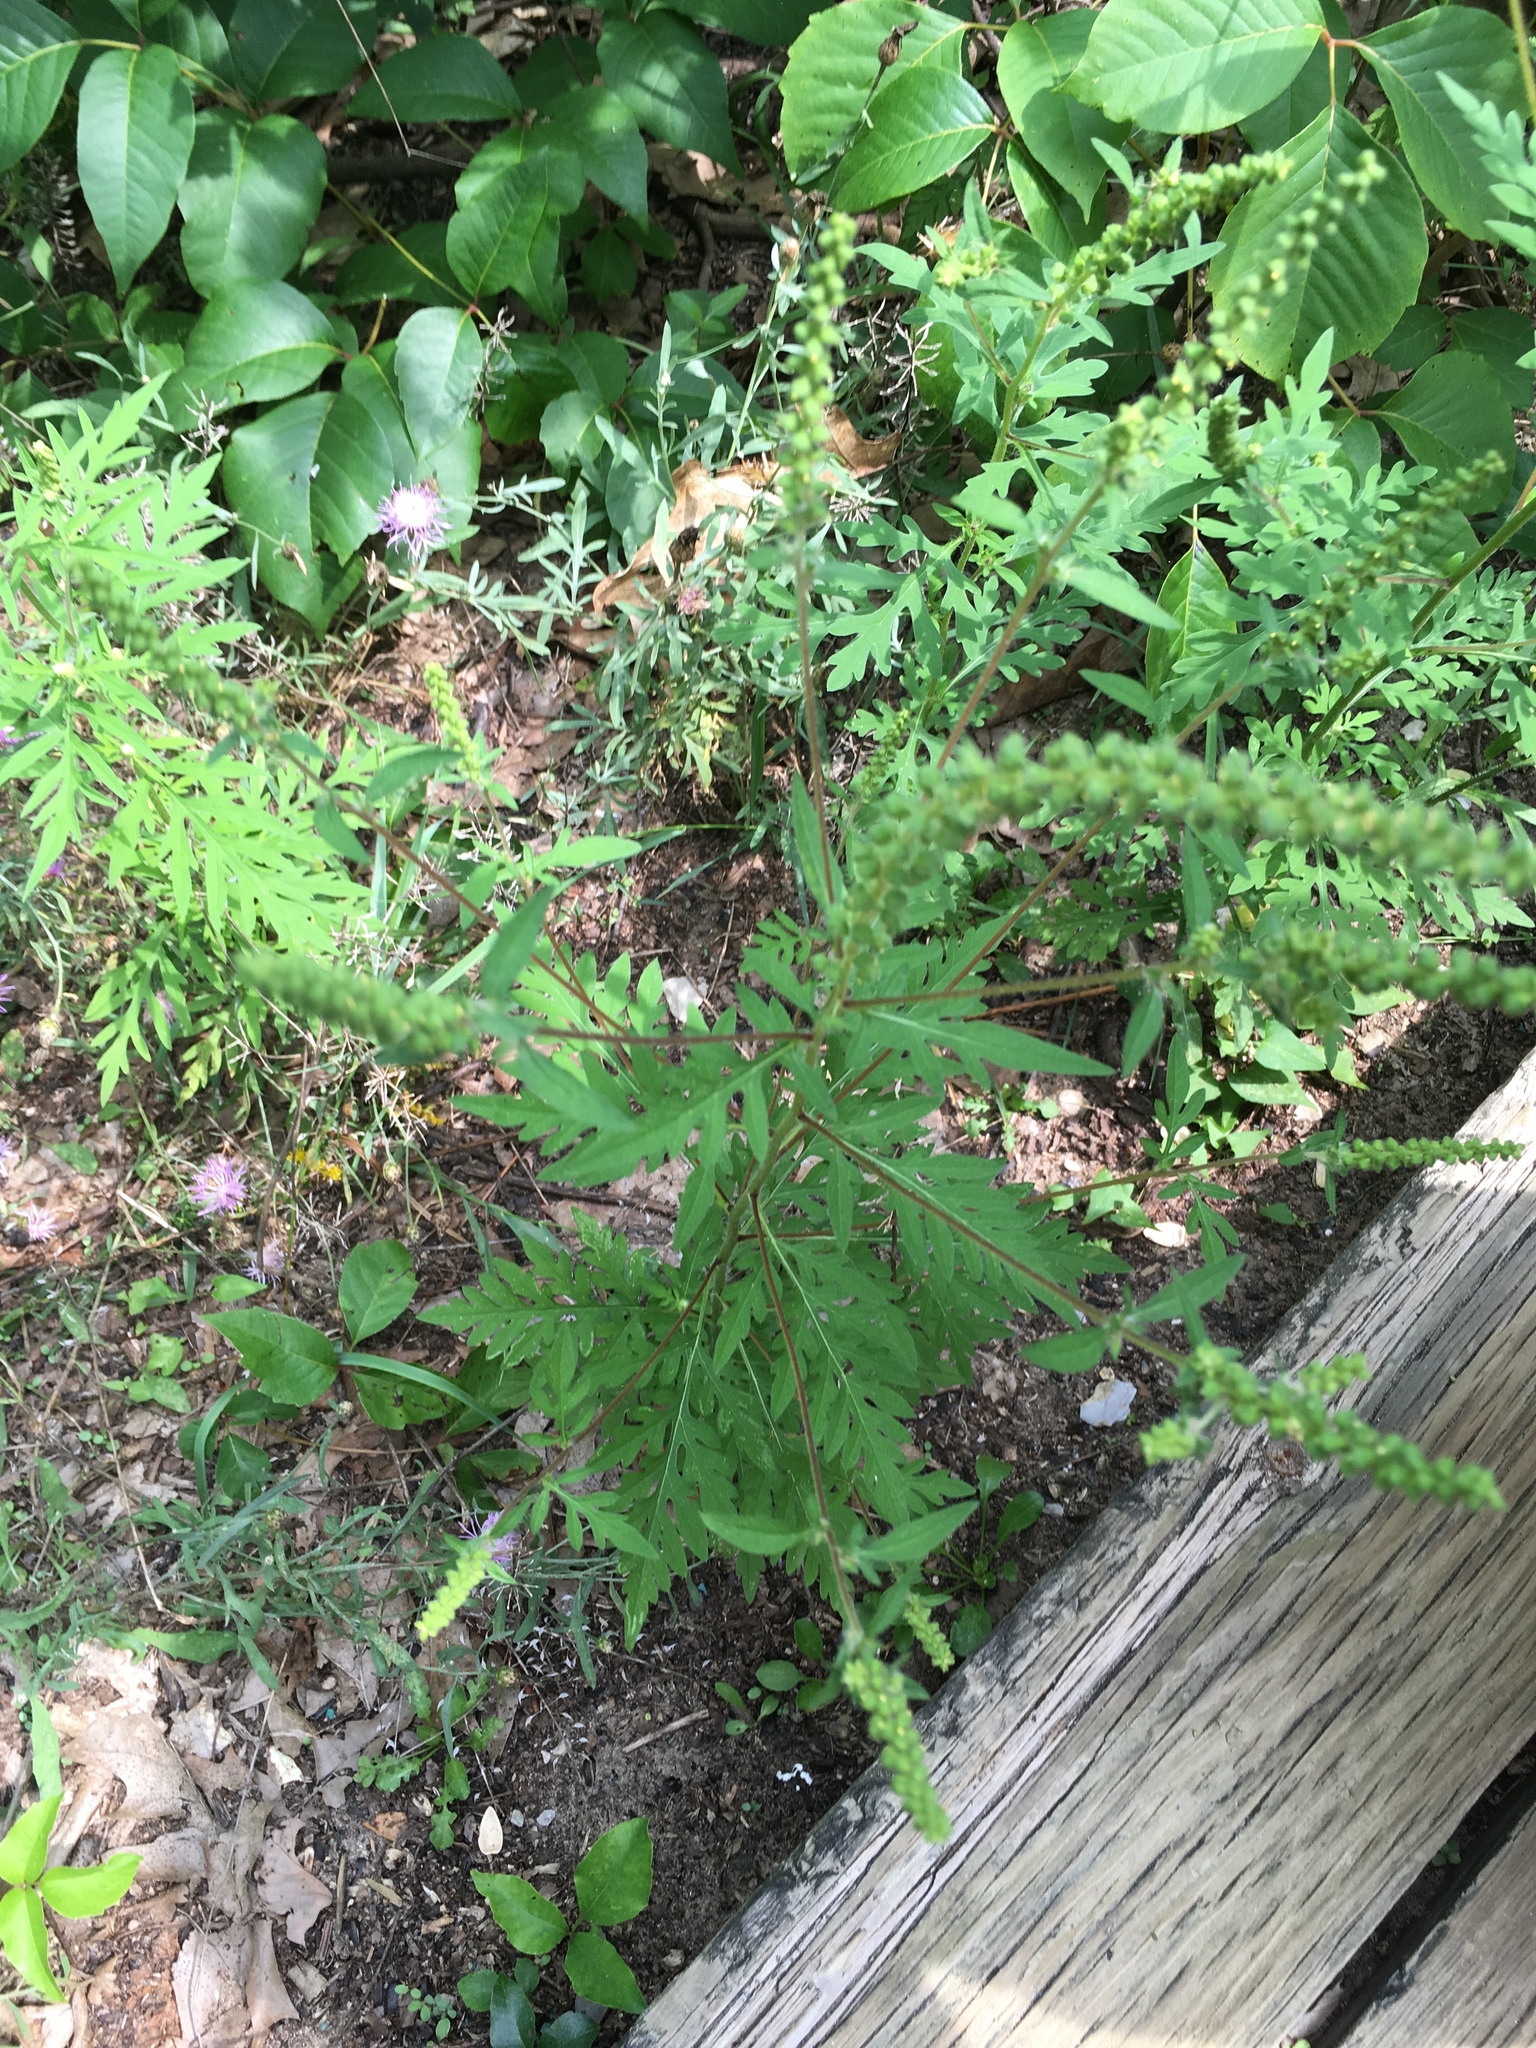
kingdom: Plantae
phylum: Tracheophyta
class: Magnoliopsida
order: Asterales
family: Asteraceae
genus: Ambrosia
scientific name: Ambrosia artemisiifolia
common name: Annual ragweed
